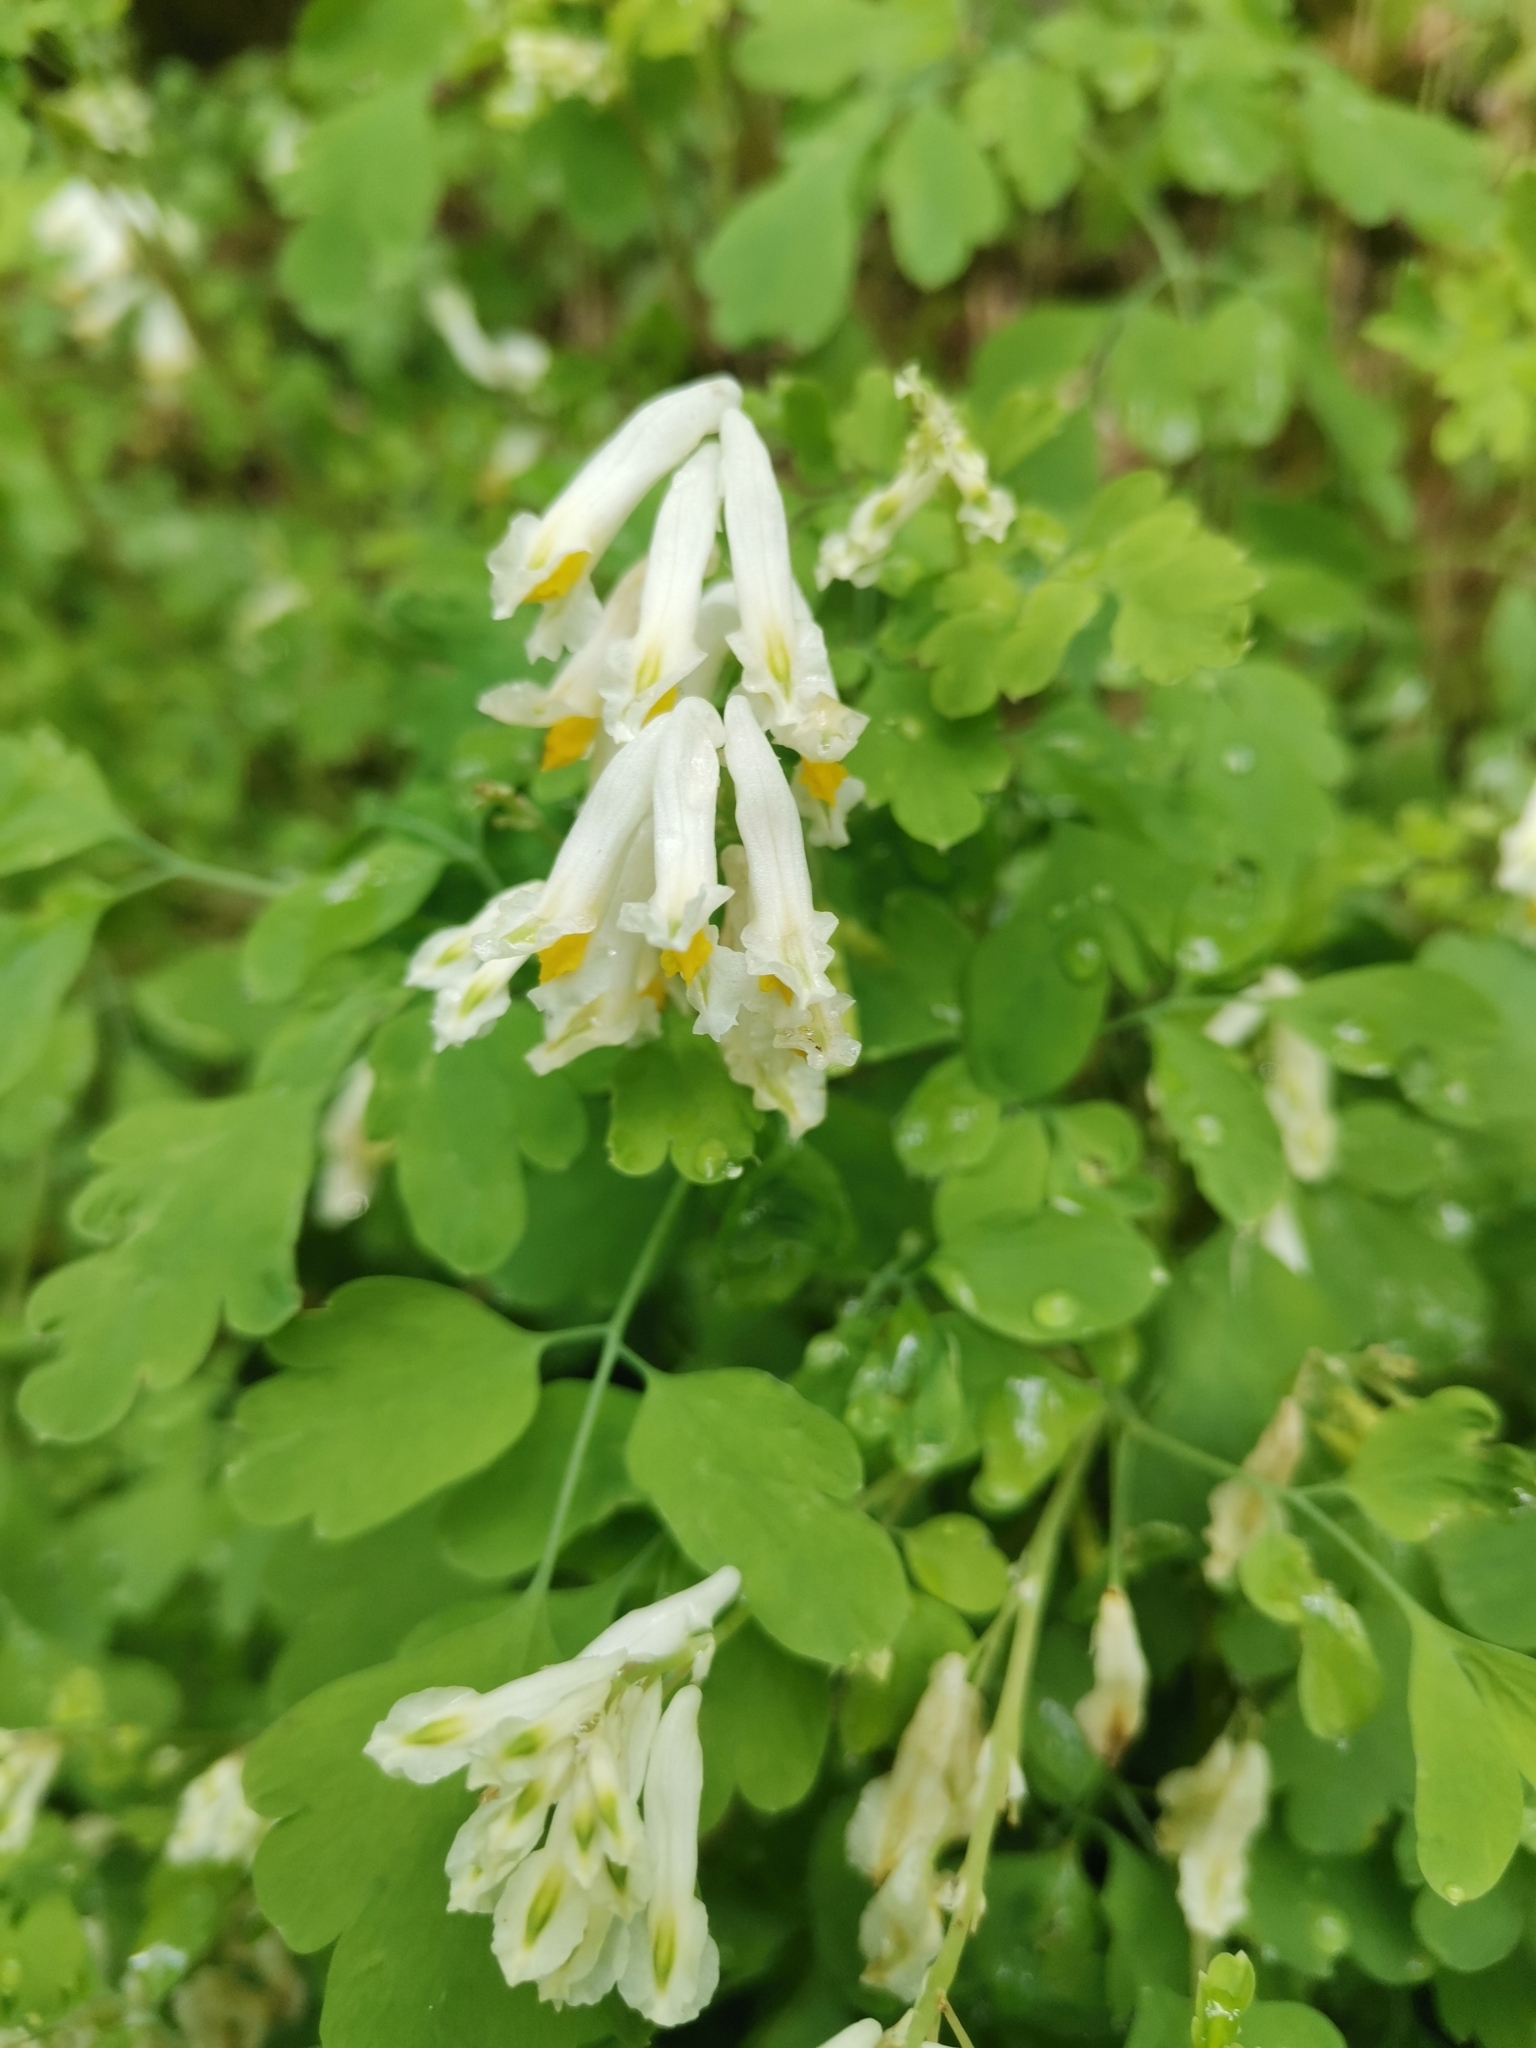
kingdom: Plantae
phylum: Tracheophyta
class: Magnoliopsida
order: Ranunculales
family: Papaveraceae
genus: Pseudofumaria
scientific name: Pseudofumaria alba
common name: Pale corydalis
